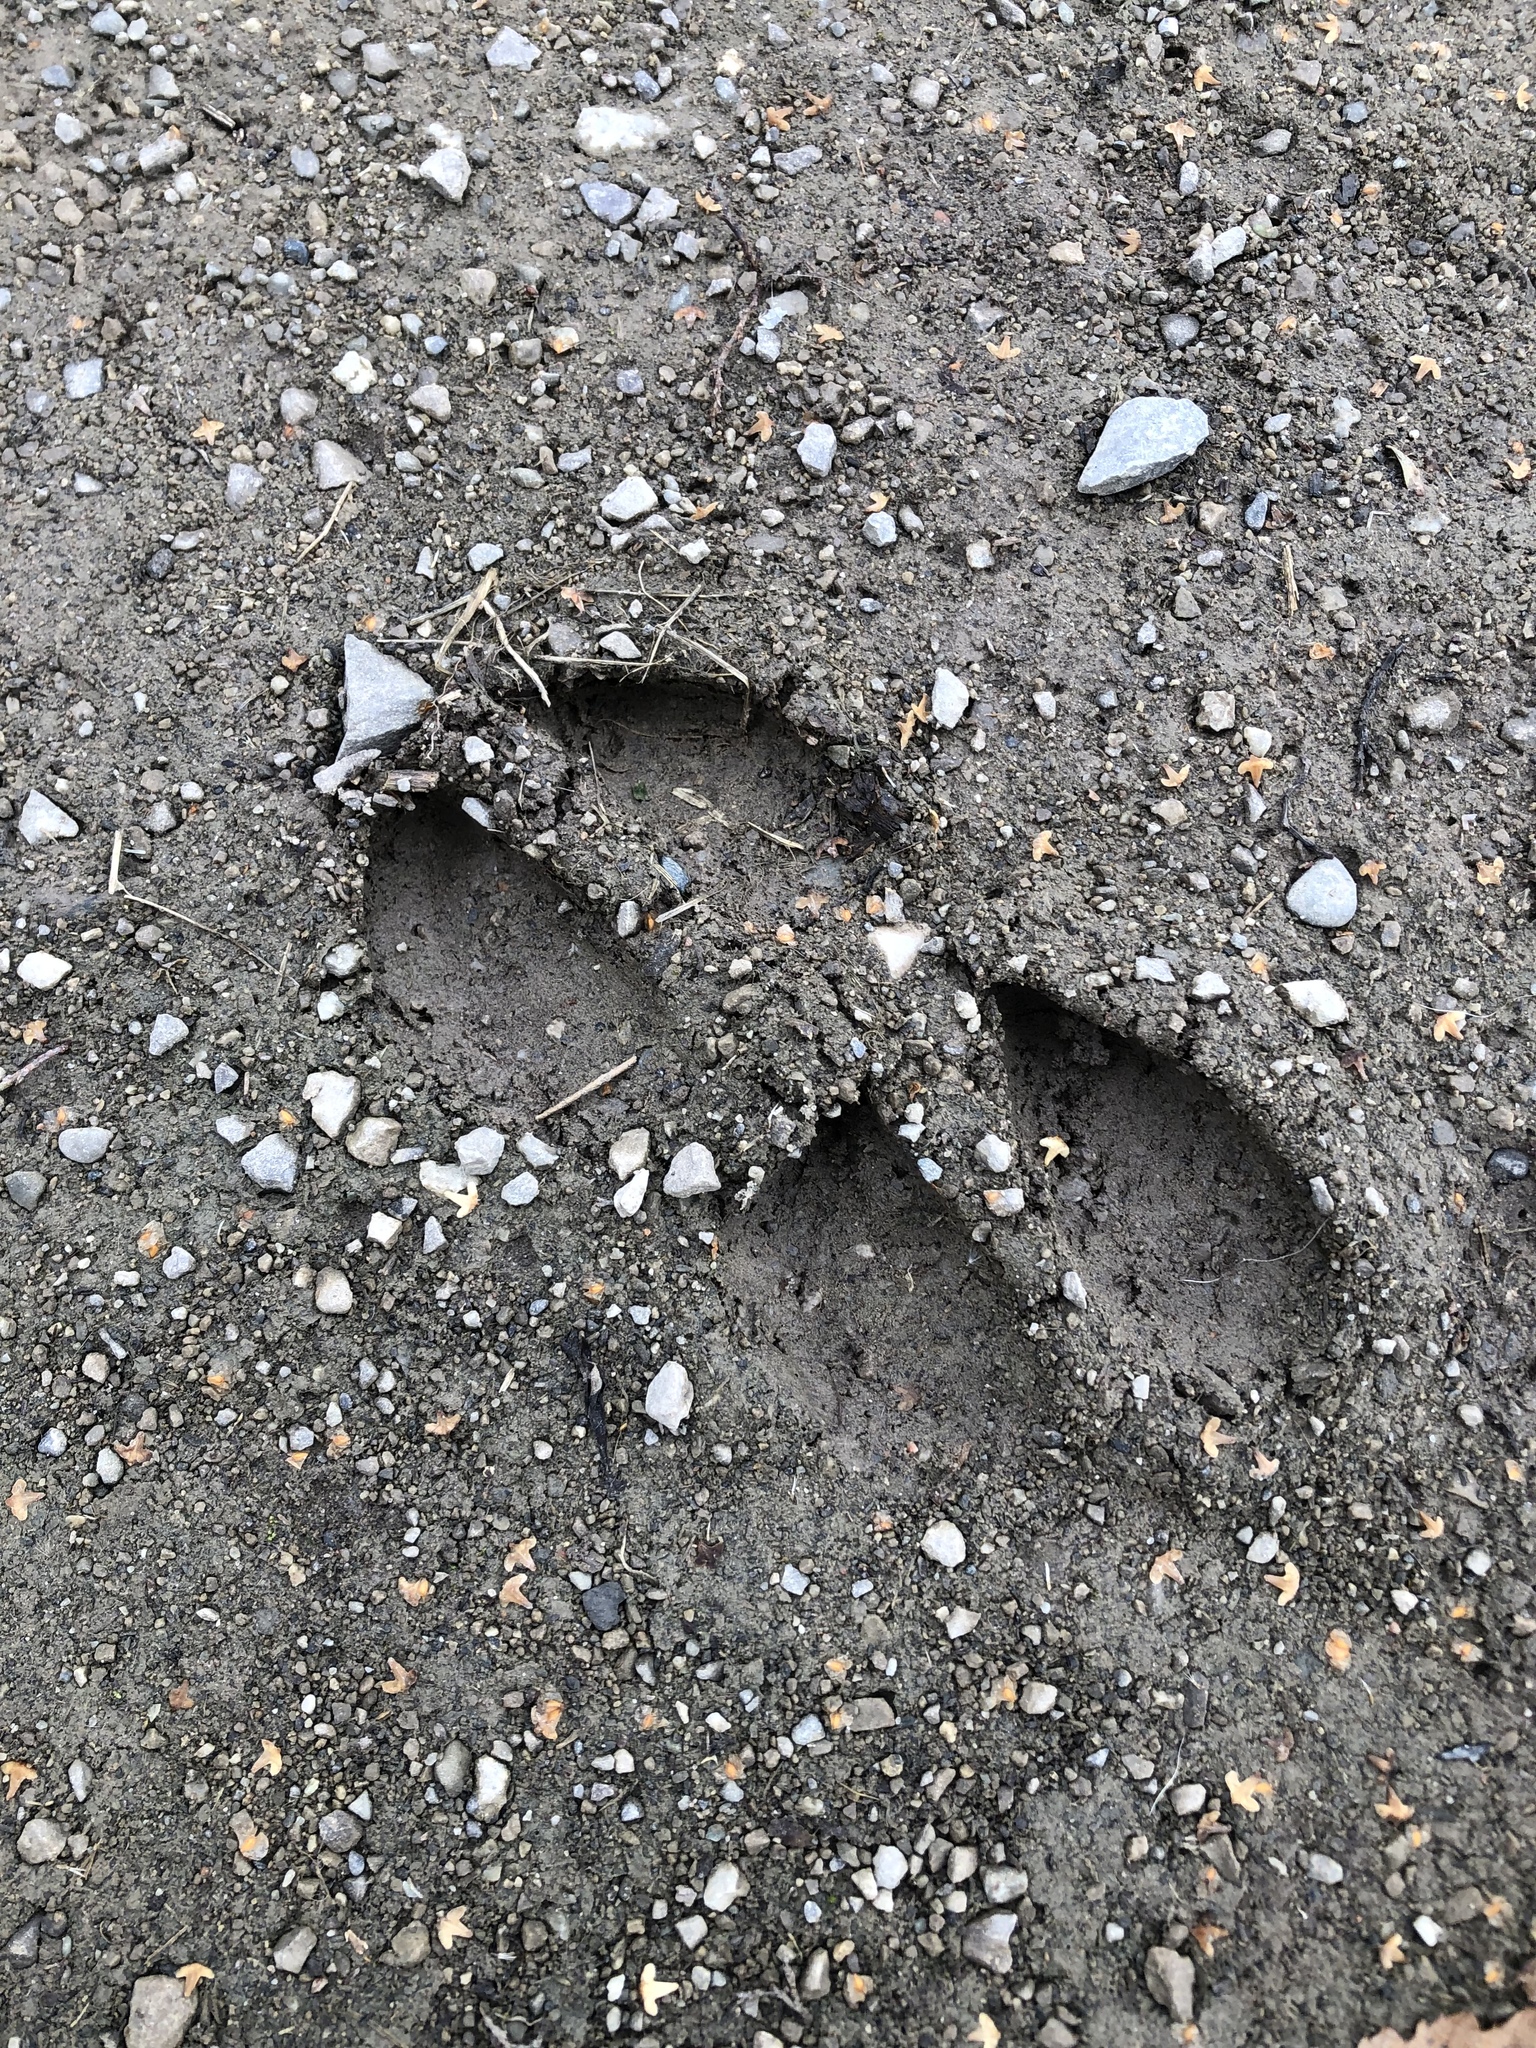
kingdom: Animalia
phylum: Chordata
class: Mammalia
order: Artiodactyla
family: Cervidae
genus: Odocoileus
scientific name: Odocoileus virginianus
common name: White-tailed deer
